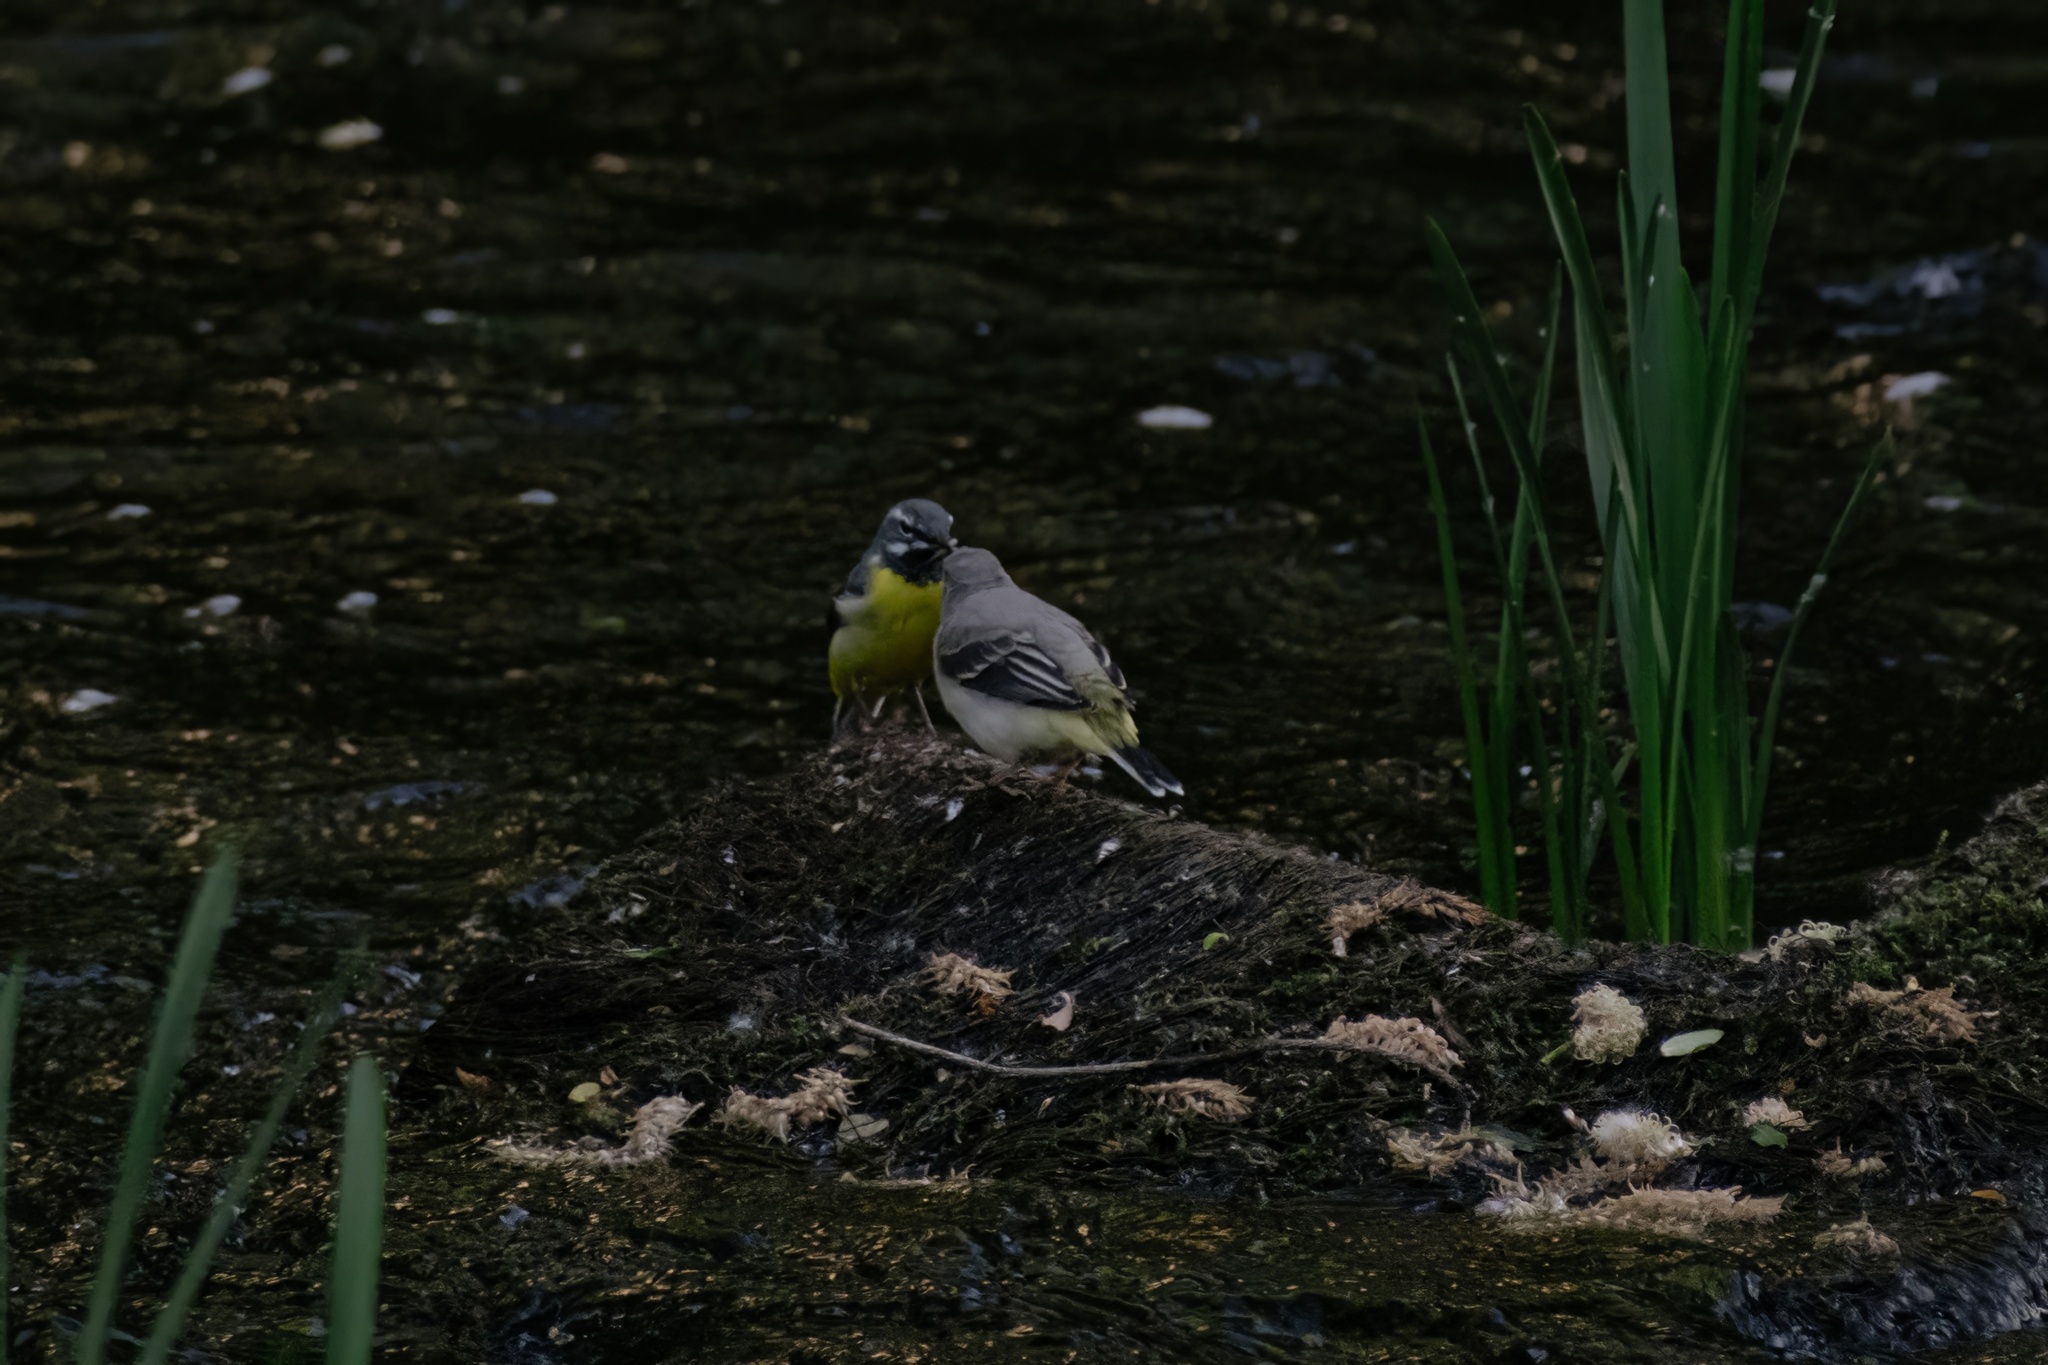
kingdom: Animalia
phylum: Chordata
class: Aves
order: Passeriformes
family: Motacillidae
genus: Motacilla
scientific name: Motacilla cinerea
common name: Grey wagtail
